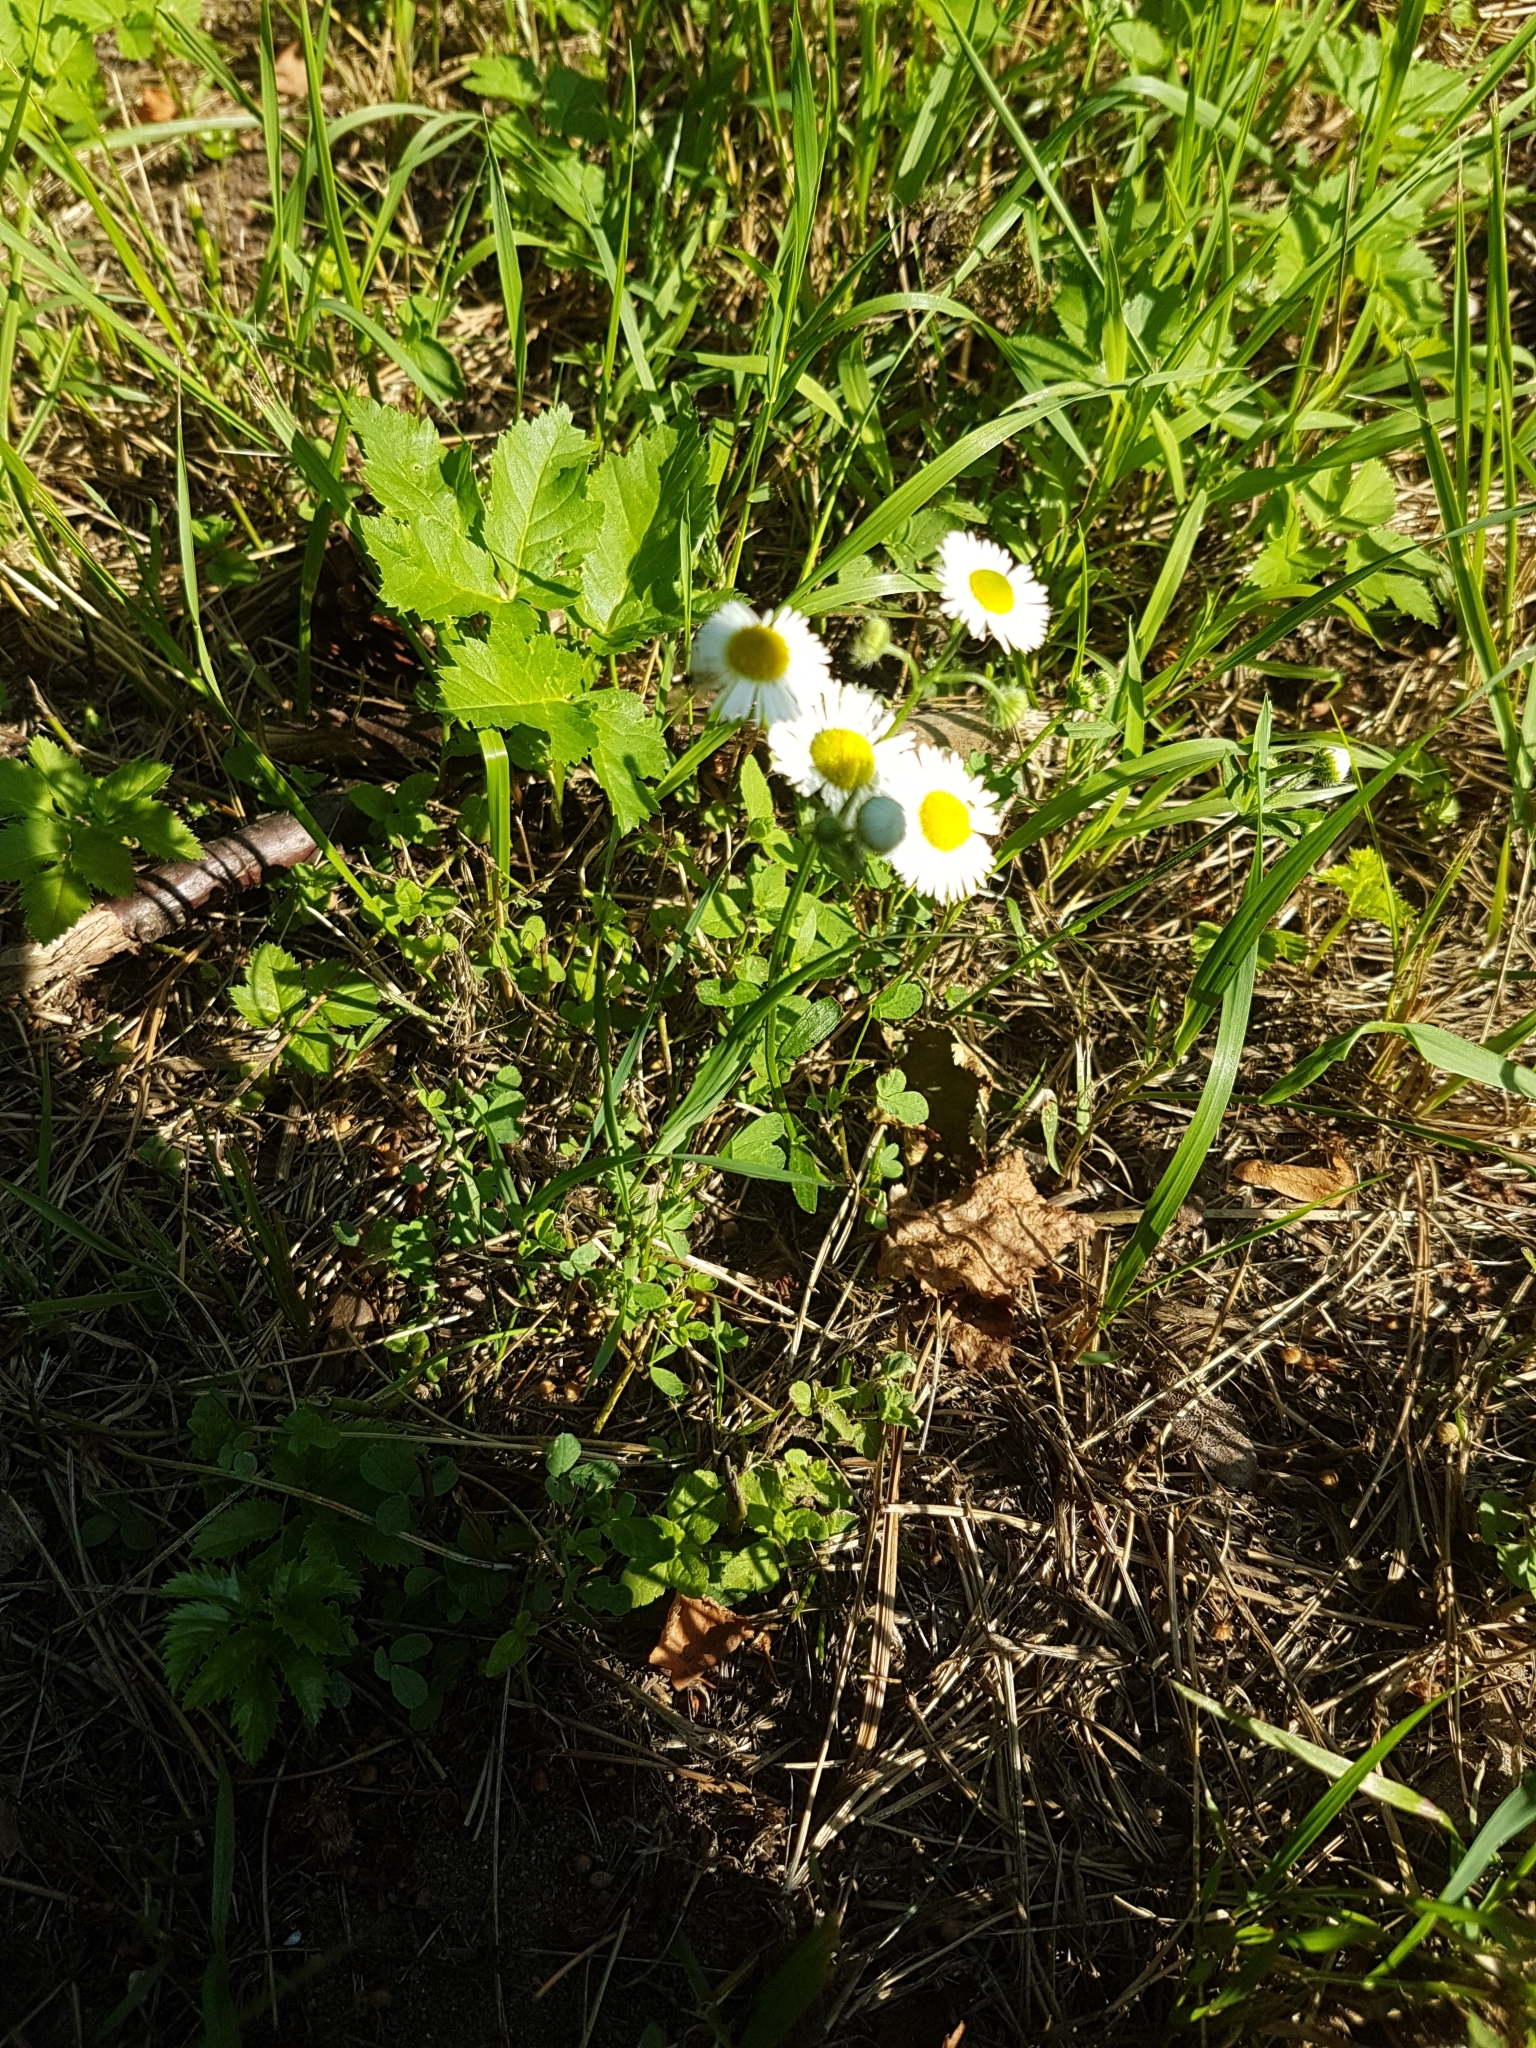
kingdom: Plantae
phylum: Tracheophyta
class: Magnoliopsida
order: Asterales
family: Asteraceae
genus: Erigeron
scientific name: Erigeron annuus
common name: Tall fleabane
